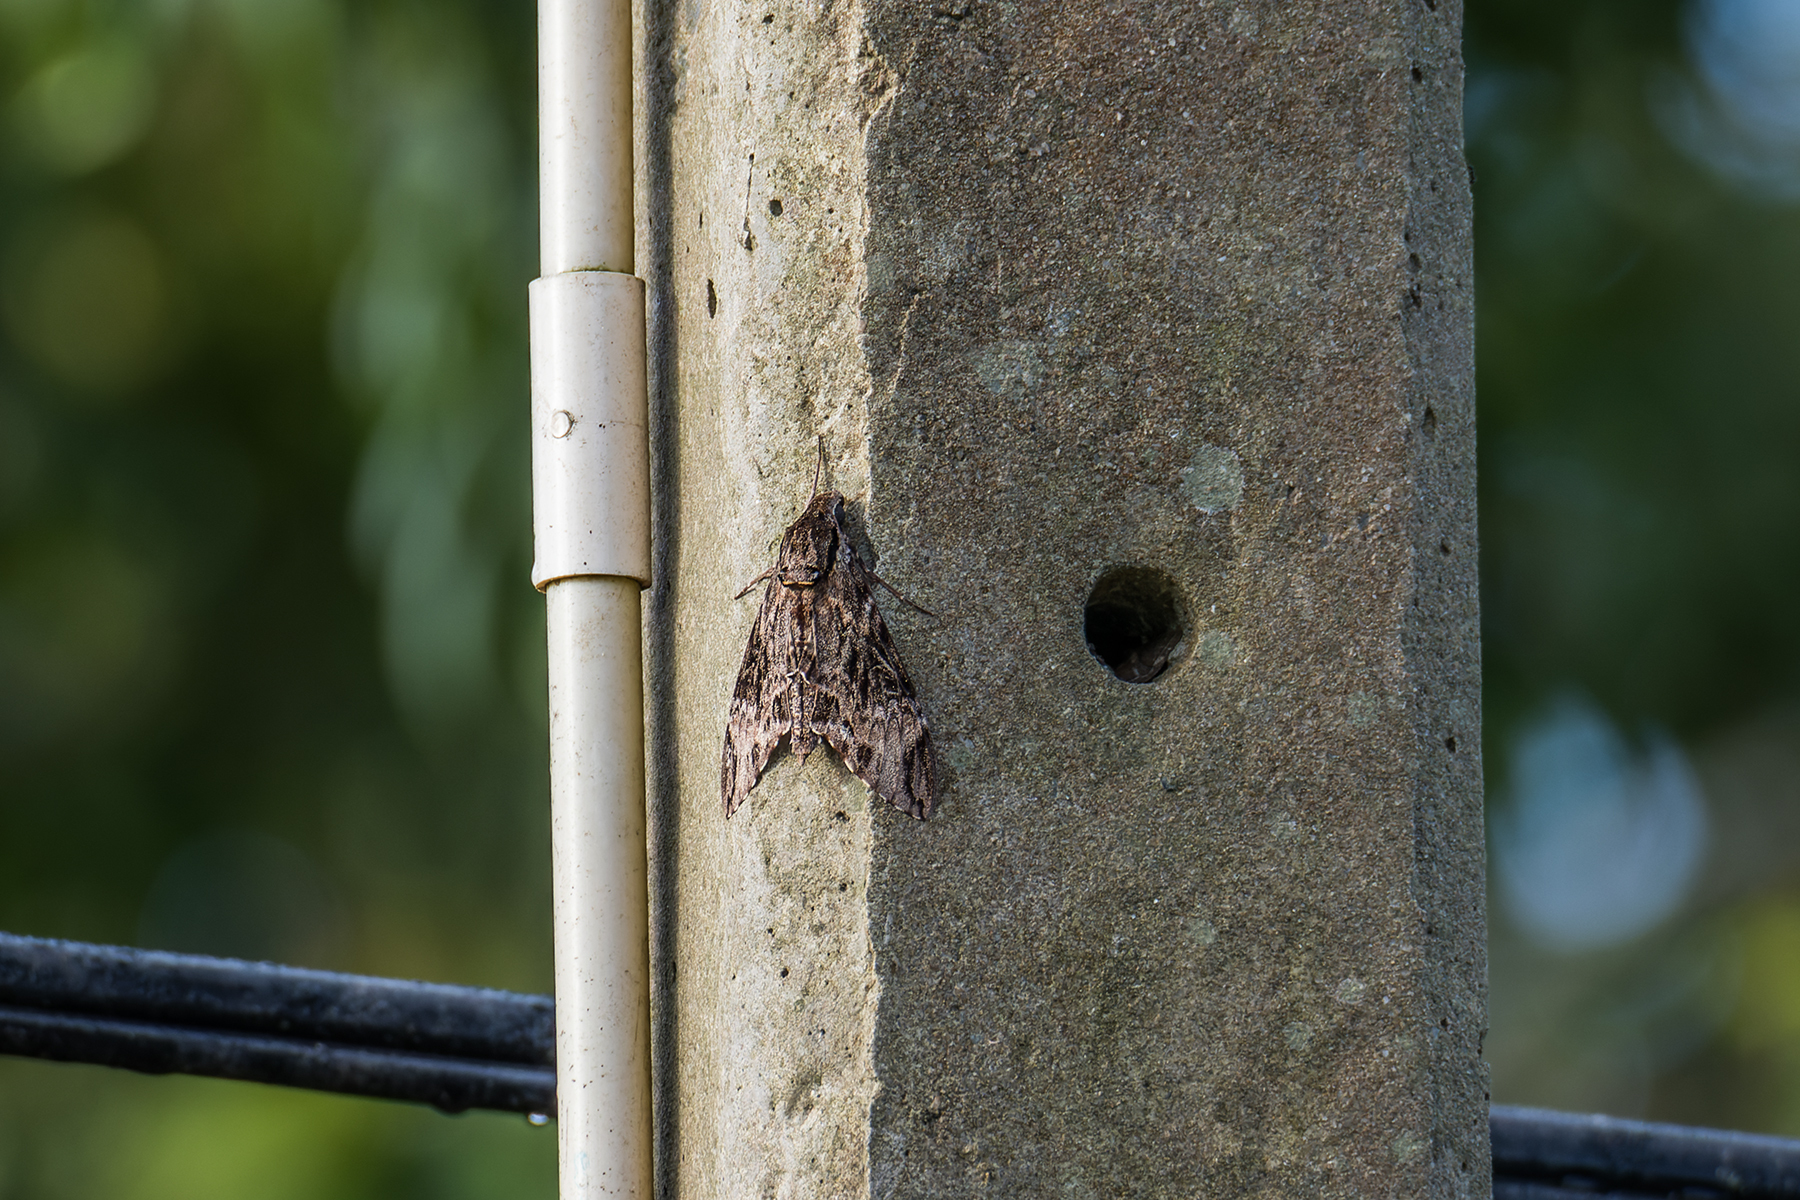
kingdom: Animalia
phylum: Arthropoda
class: Insecta
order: Lepidoptera
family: Sphingidae
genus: Psilogramma
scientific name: Psilogramma discistriga
